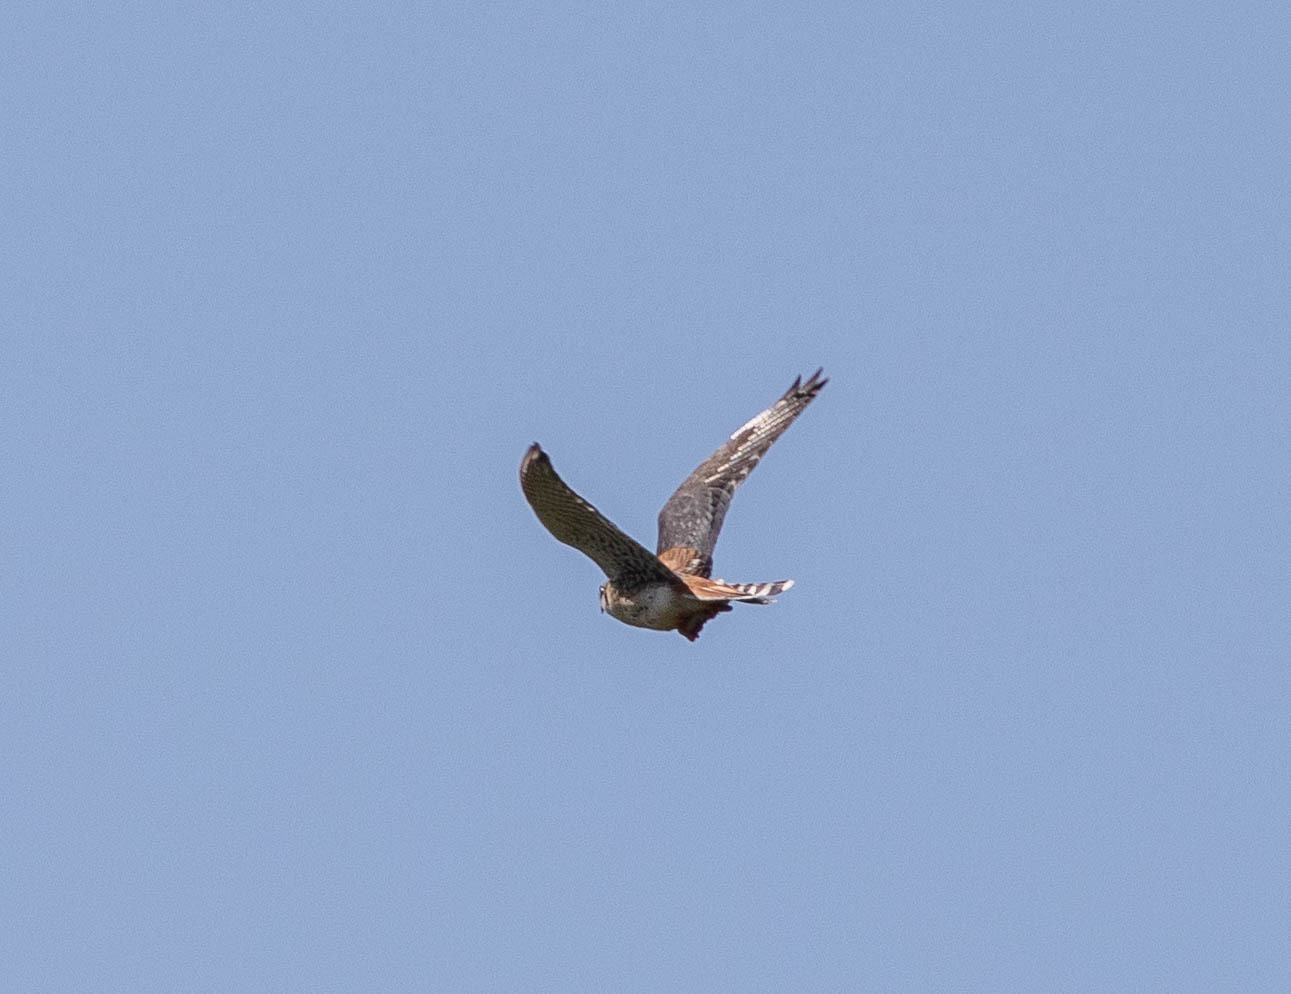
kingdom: Animalia
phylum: Chordata
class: Aves
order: Falconiformes
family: Falconidae
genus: Falco
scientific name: Falco sparverius
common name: American kestrel
